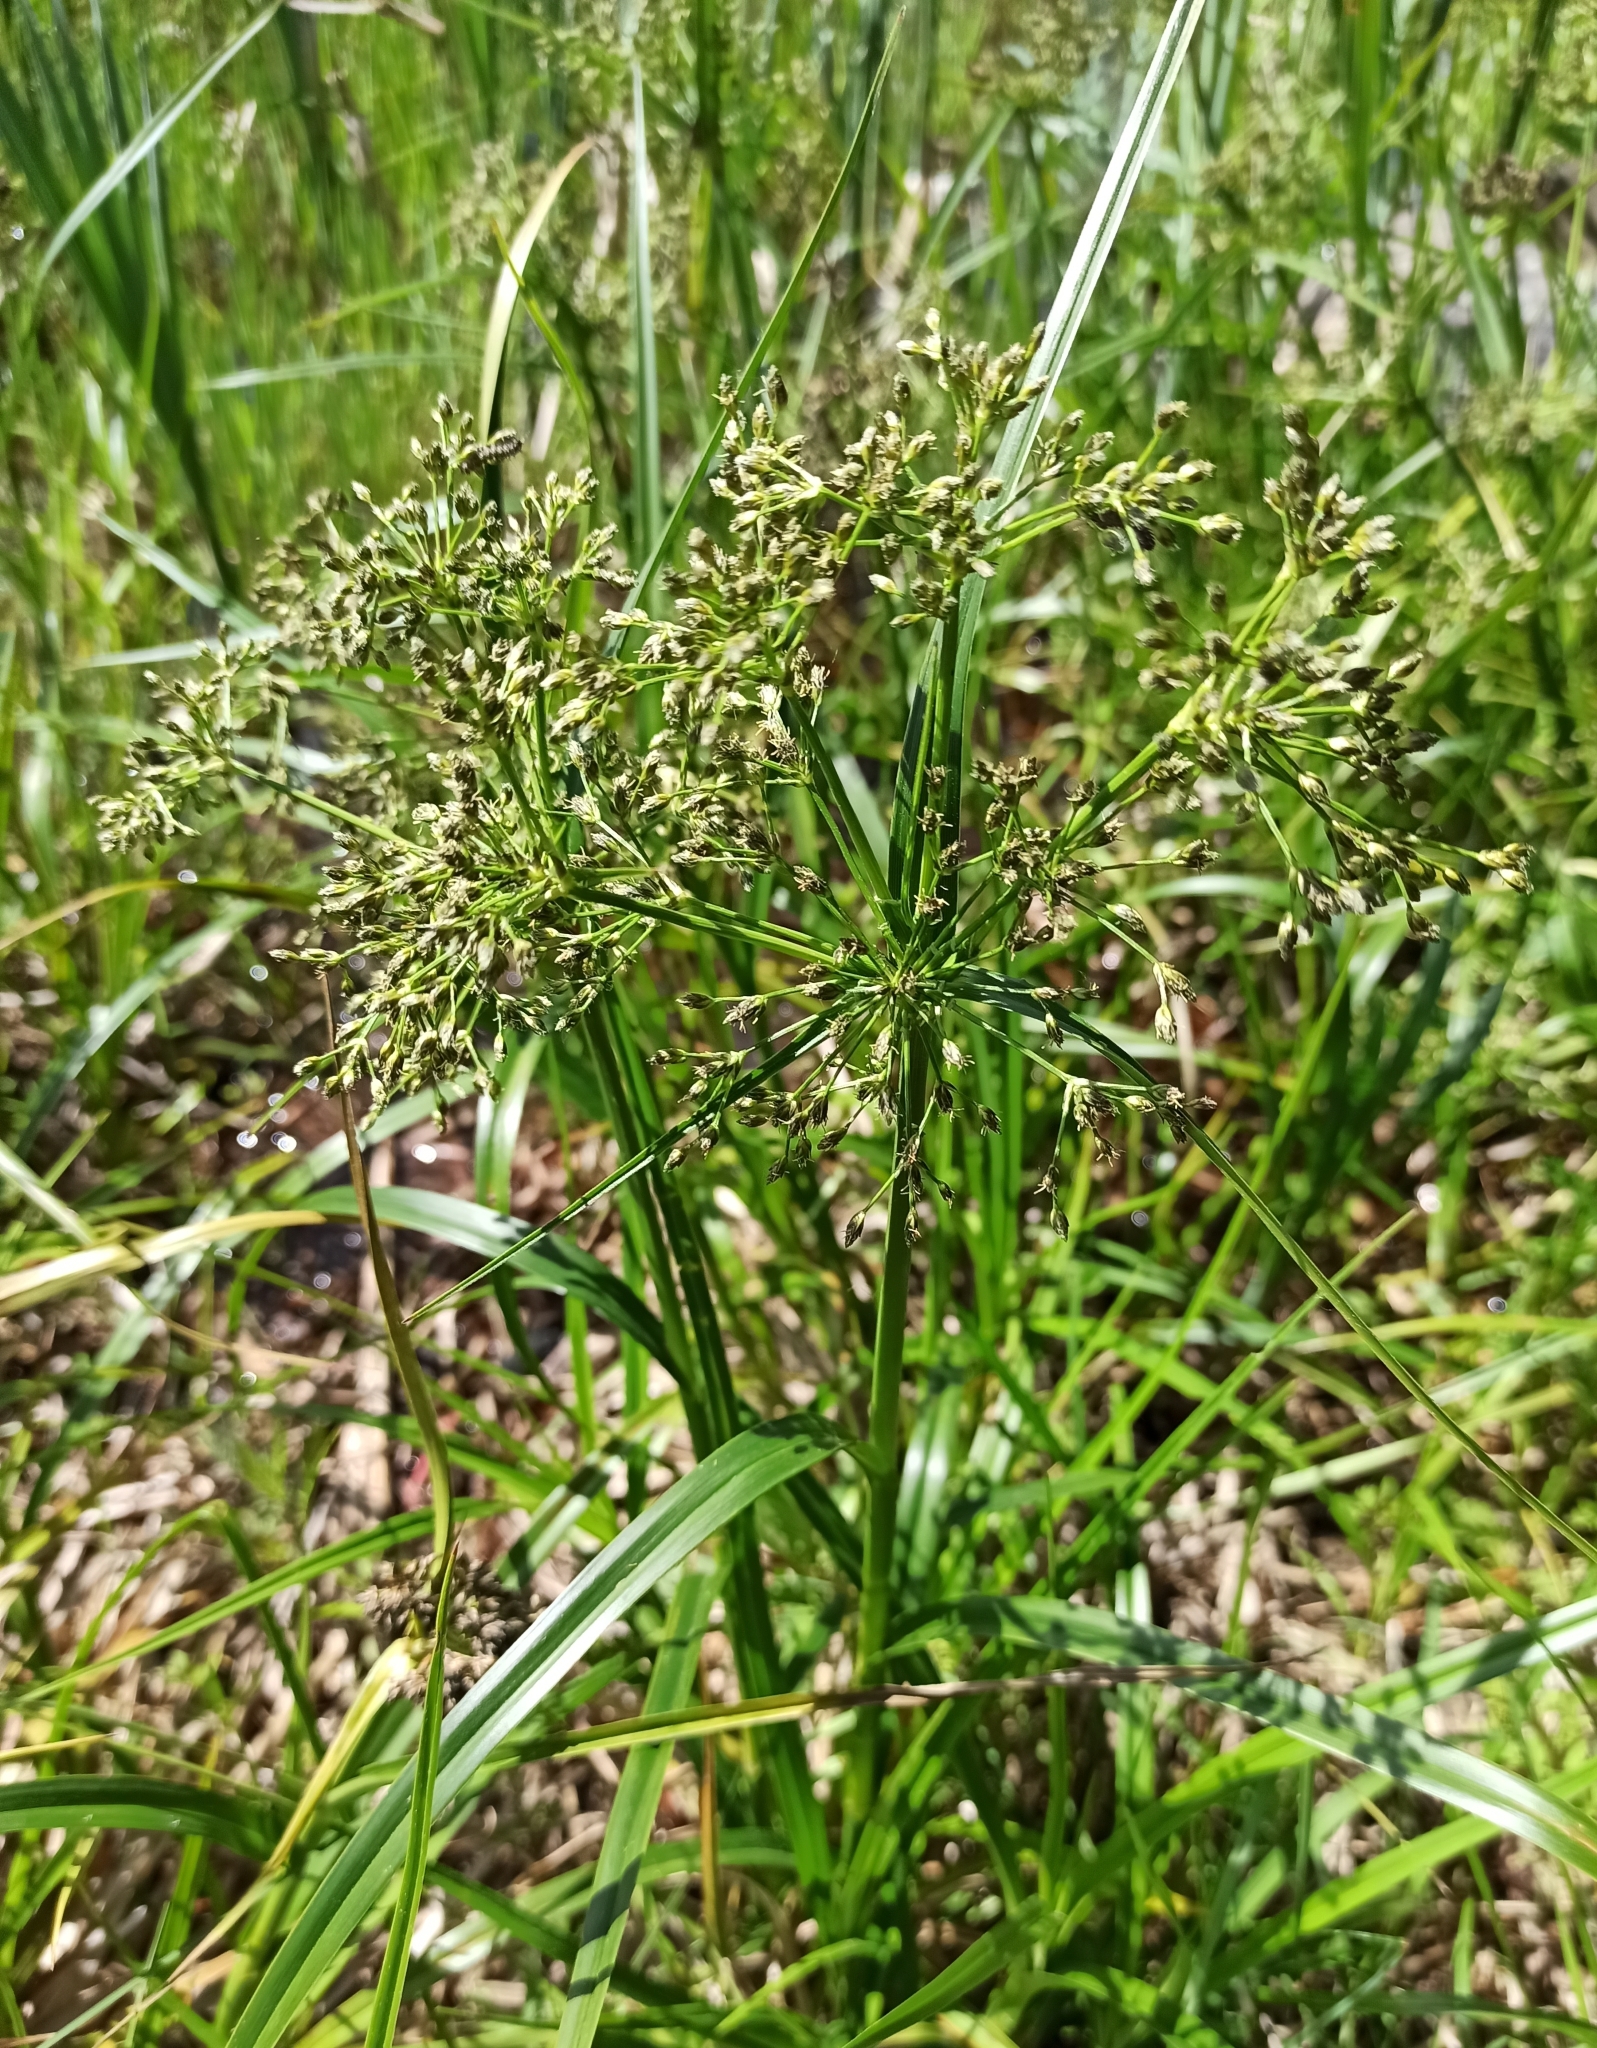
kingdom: Plantae
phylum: Tracheophyta
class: Liliopsida
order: Poales
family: Cyperaceae
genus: Scirpus
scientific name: Scirpus radicans
